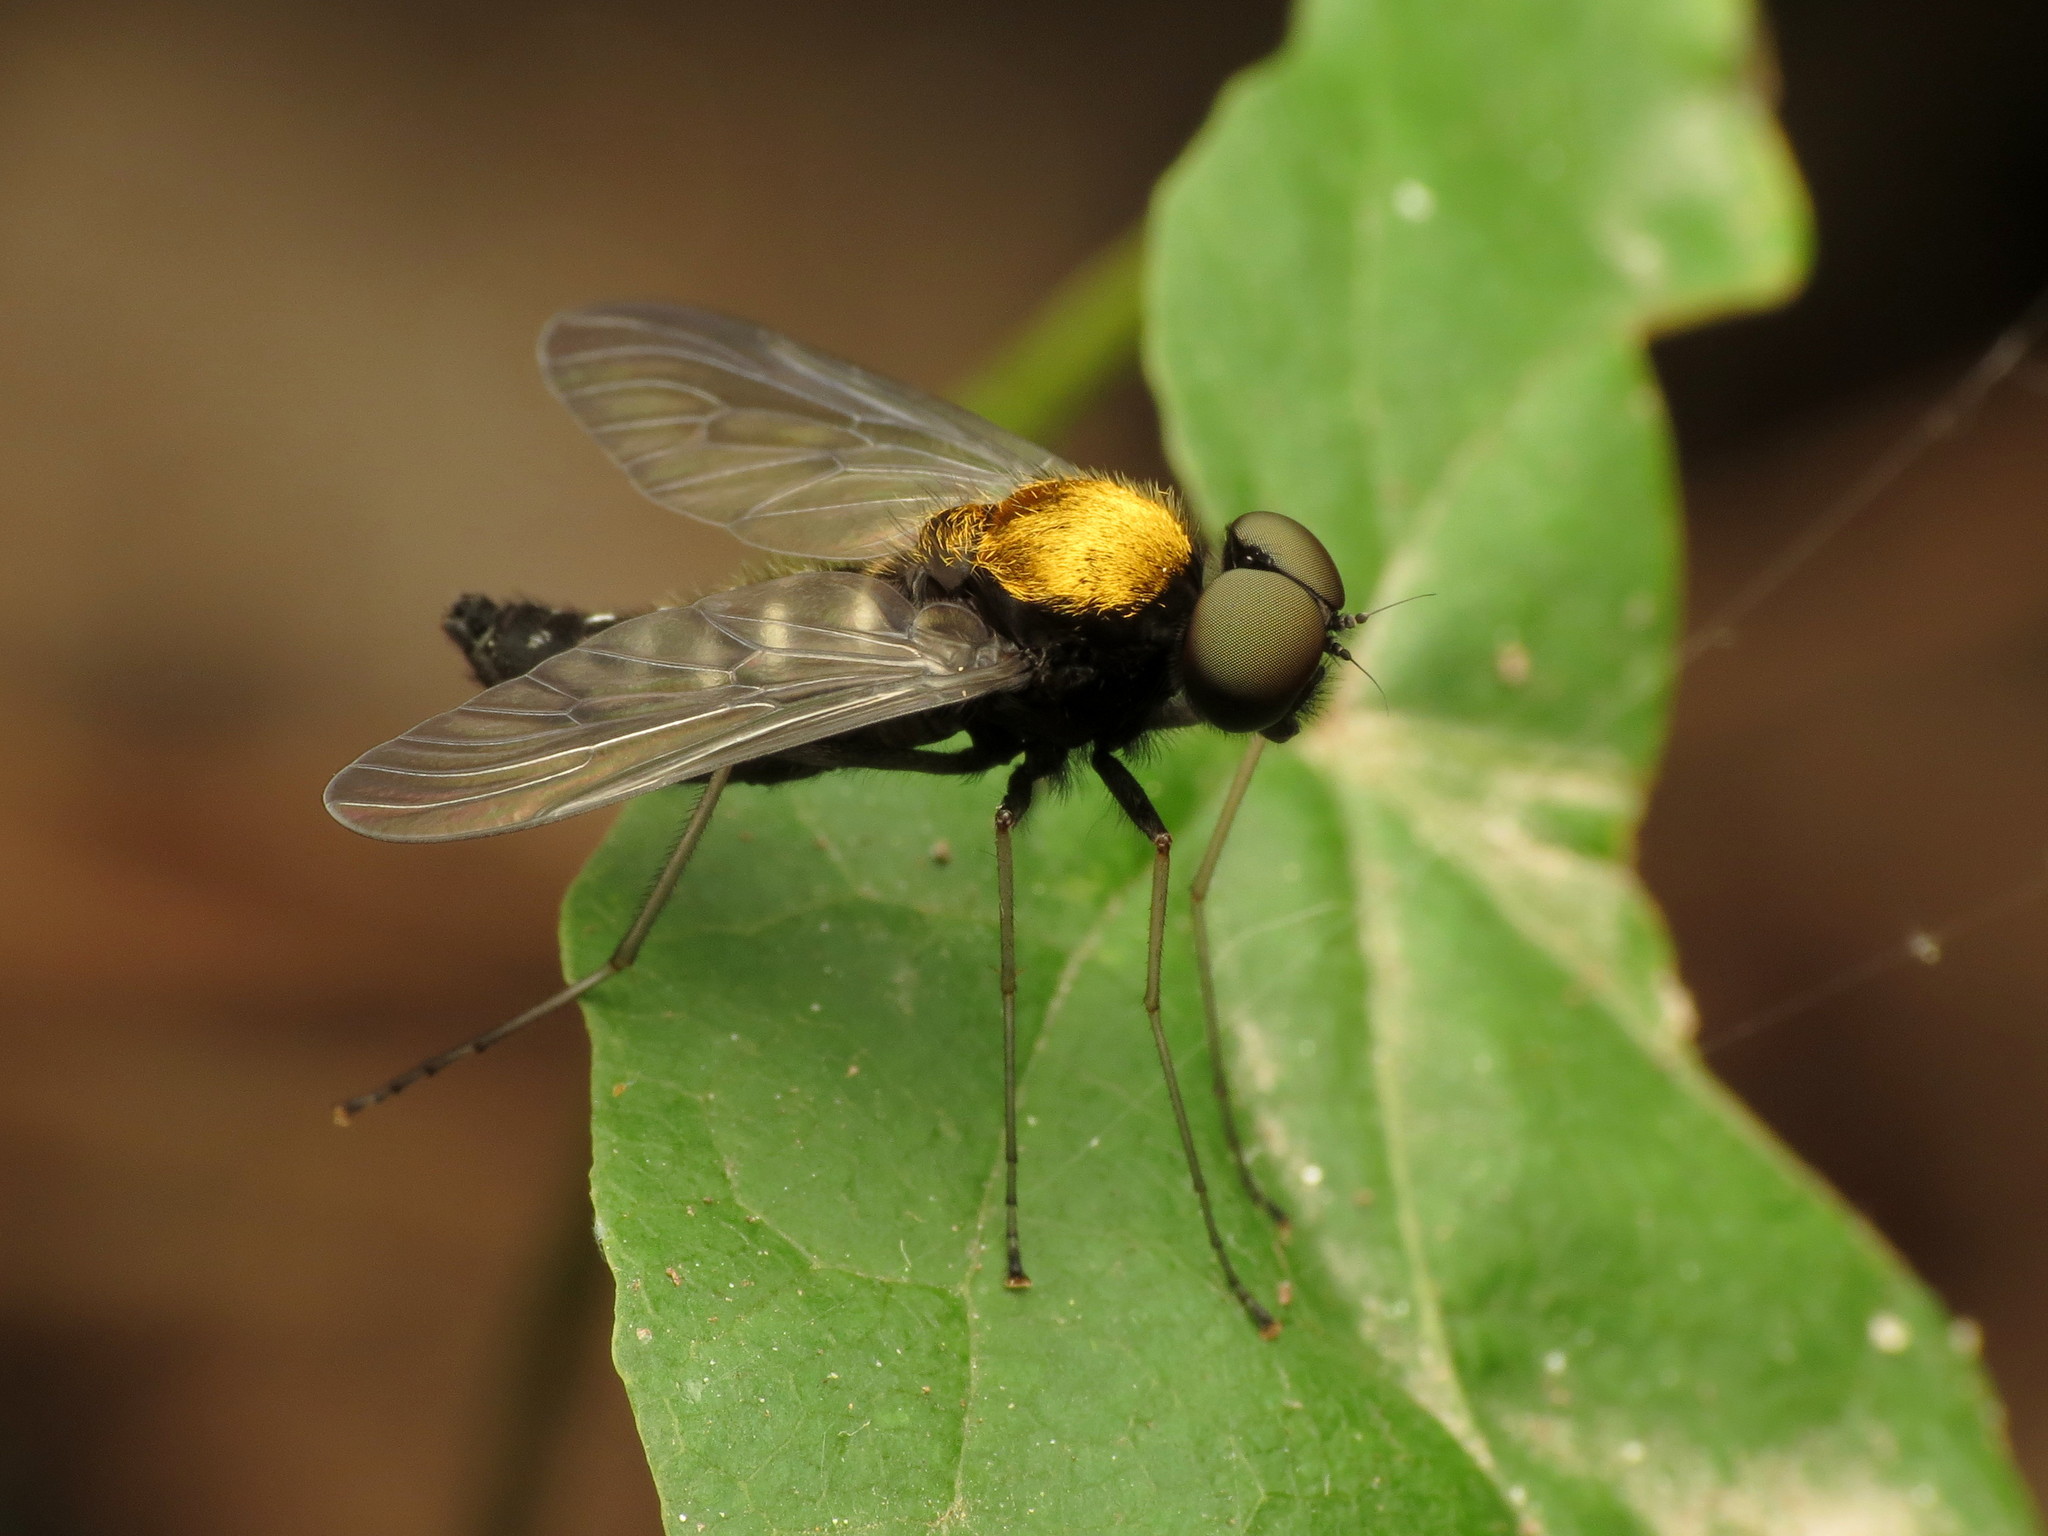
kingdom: Animalia
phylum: Arthropoda
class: Insecta
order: Diptera
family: Rhagionidae
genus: Chrysopilus
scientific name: Chrysopilus thoracicus
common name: Golden-backed snipe fly
